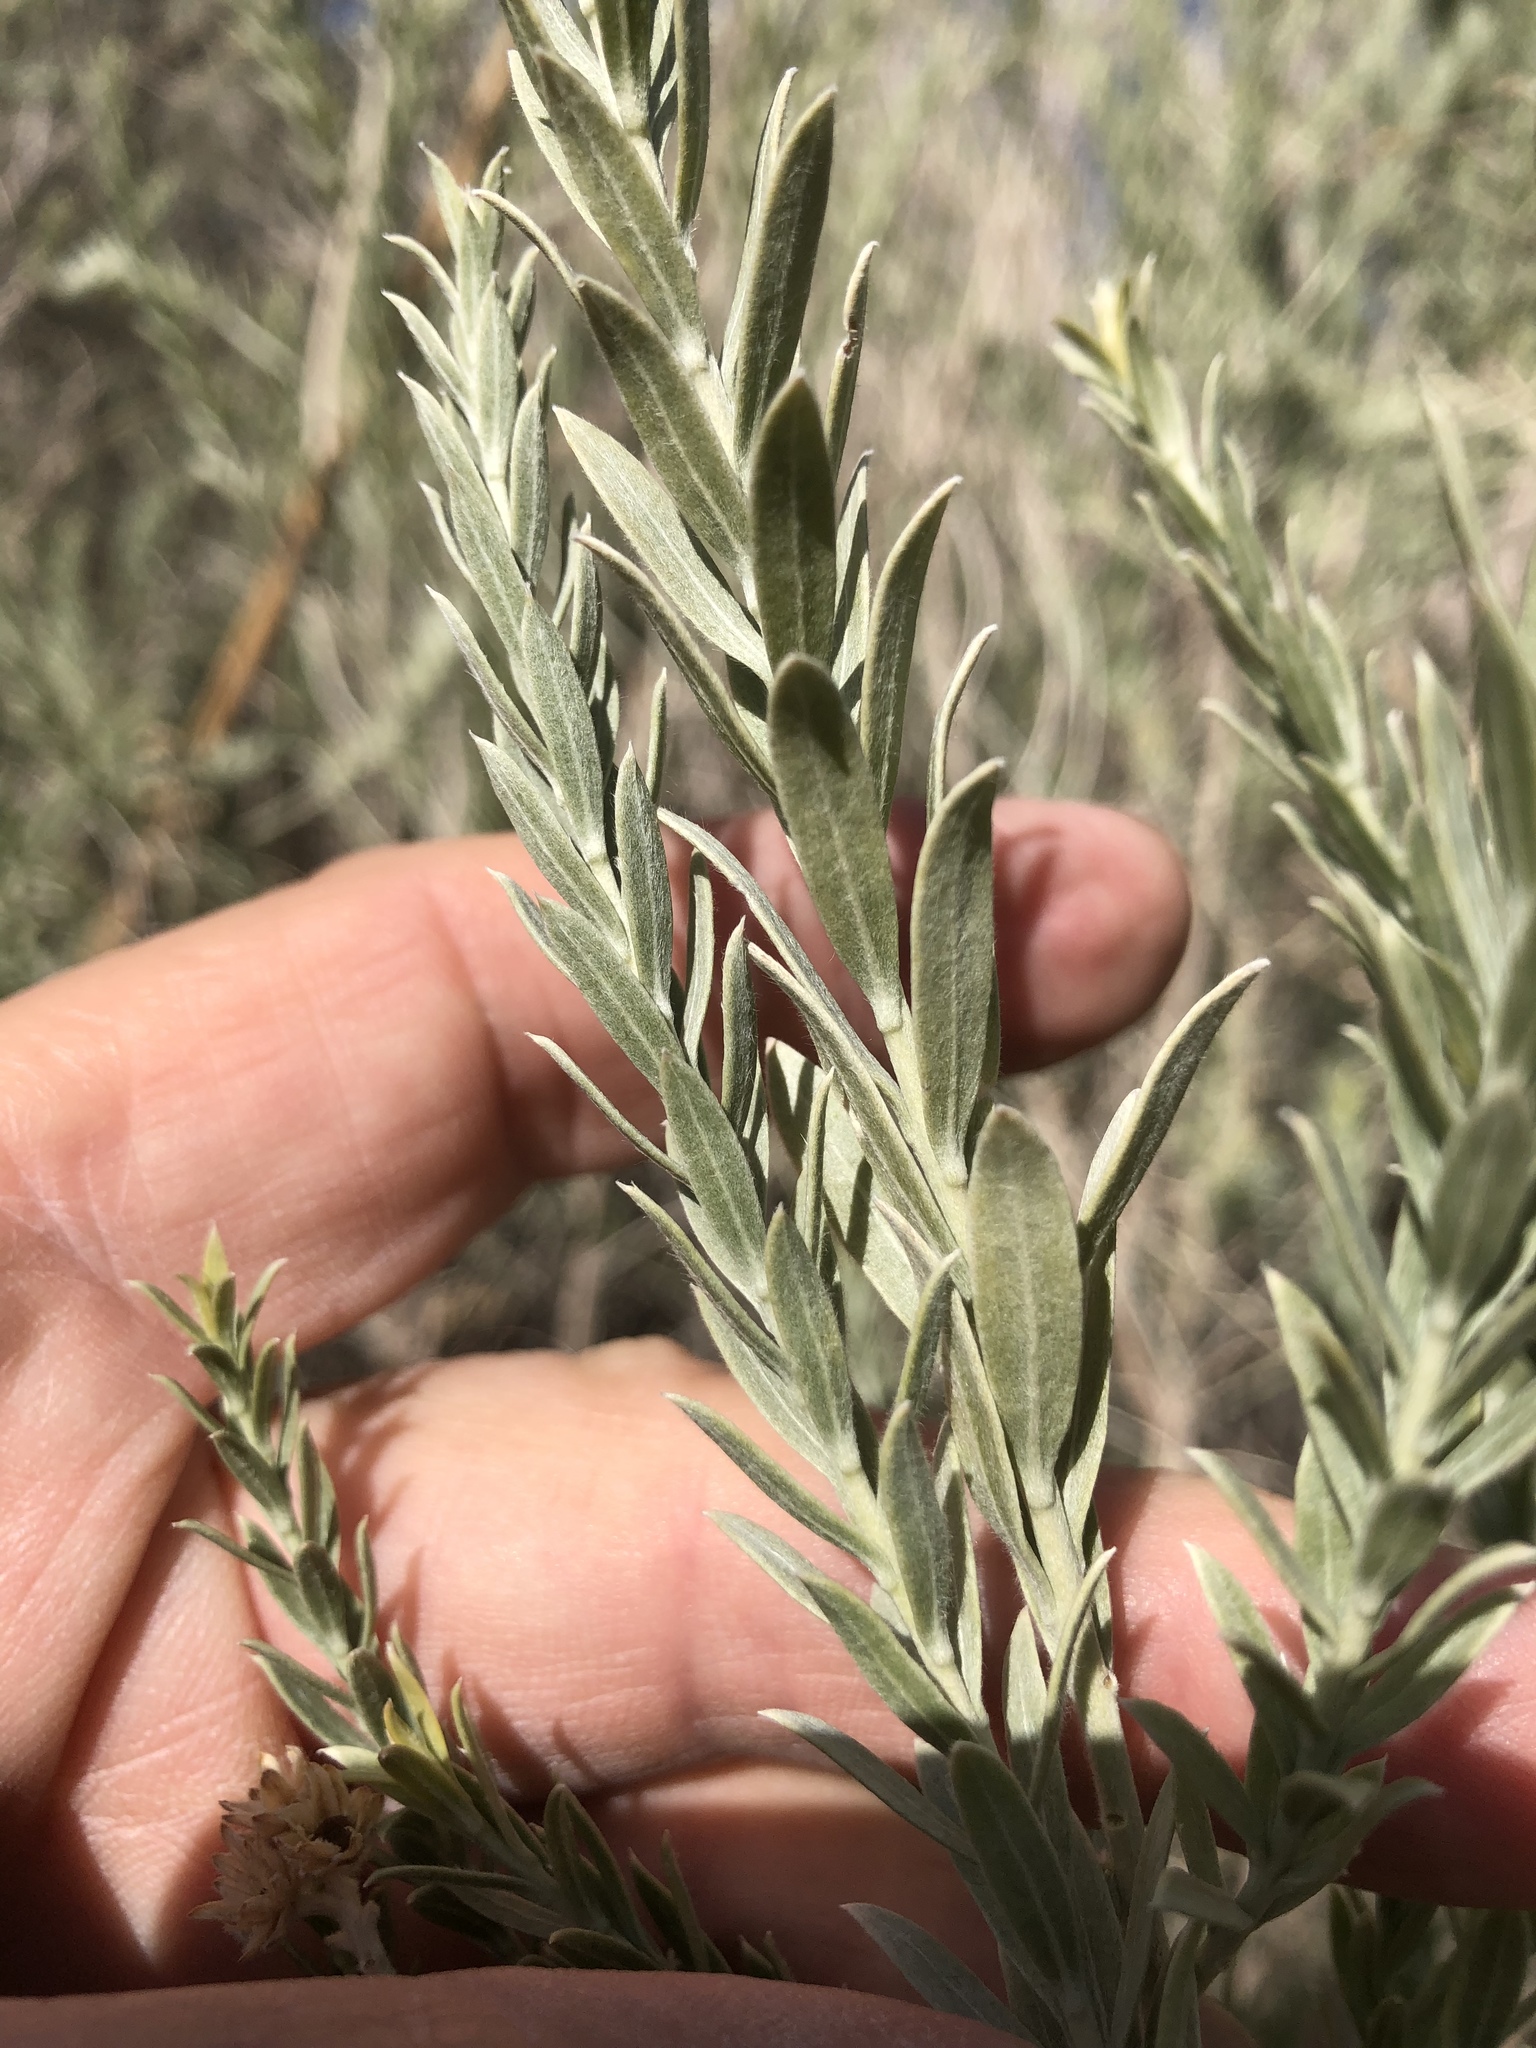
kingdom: Plantae
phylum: Tracheophyta
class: Magnoliopsida
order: Asterales
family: Asteraceae
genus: Pluchea
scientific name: Pluchea sericea
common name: Arrow-weed
